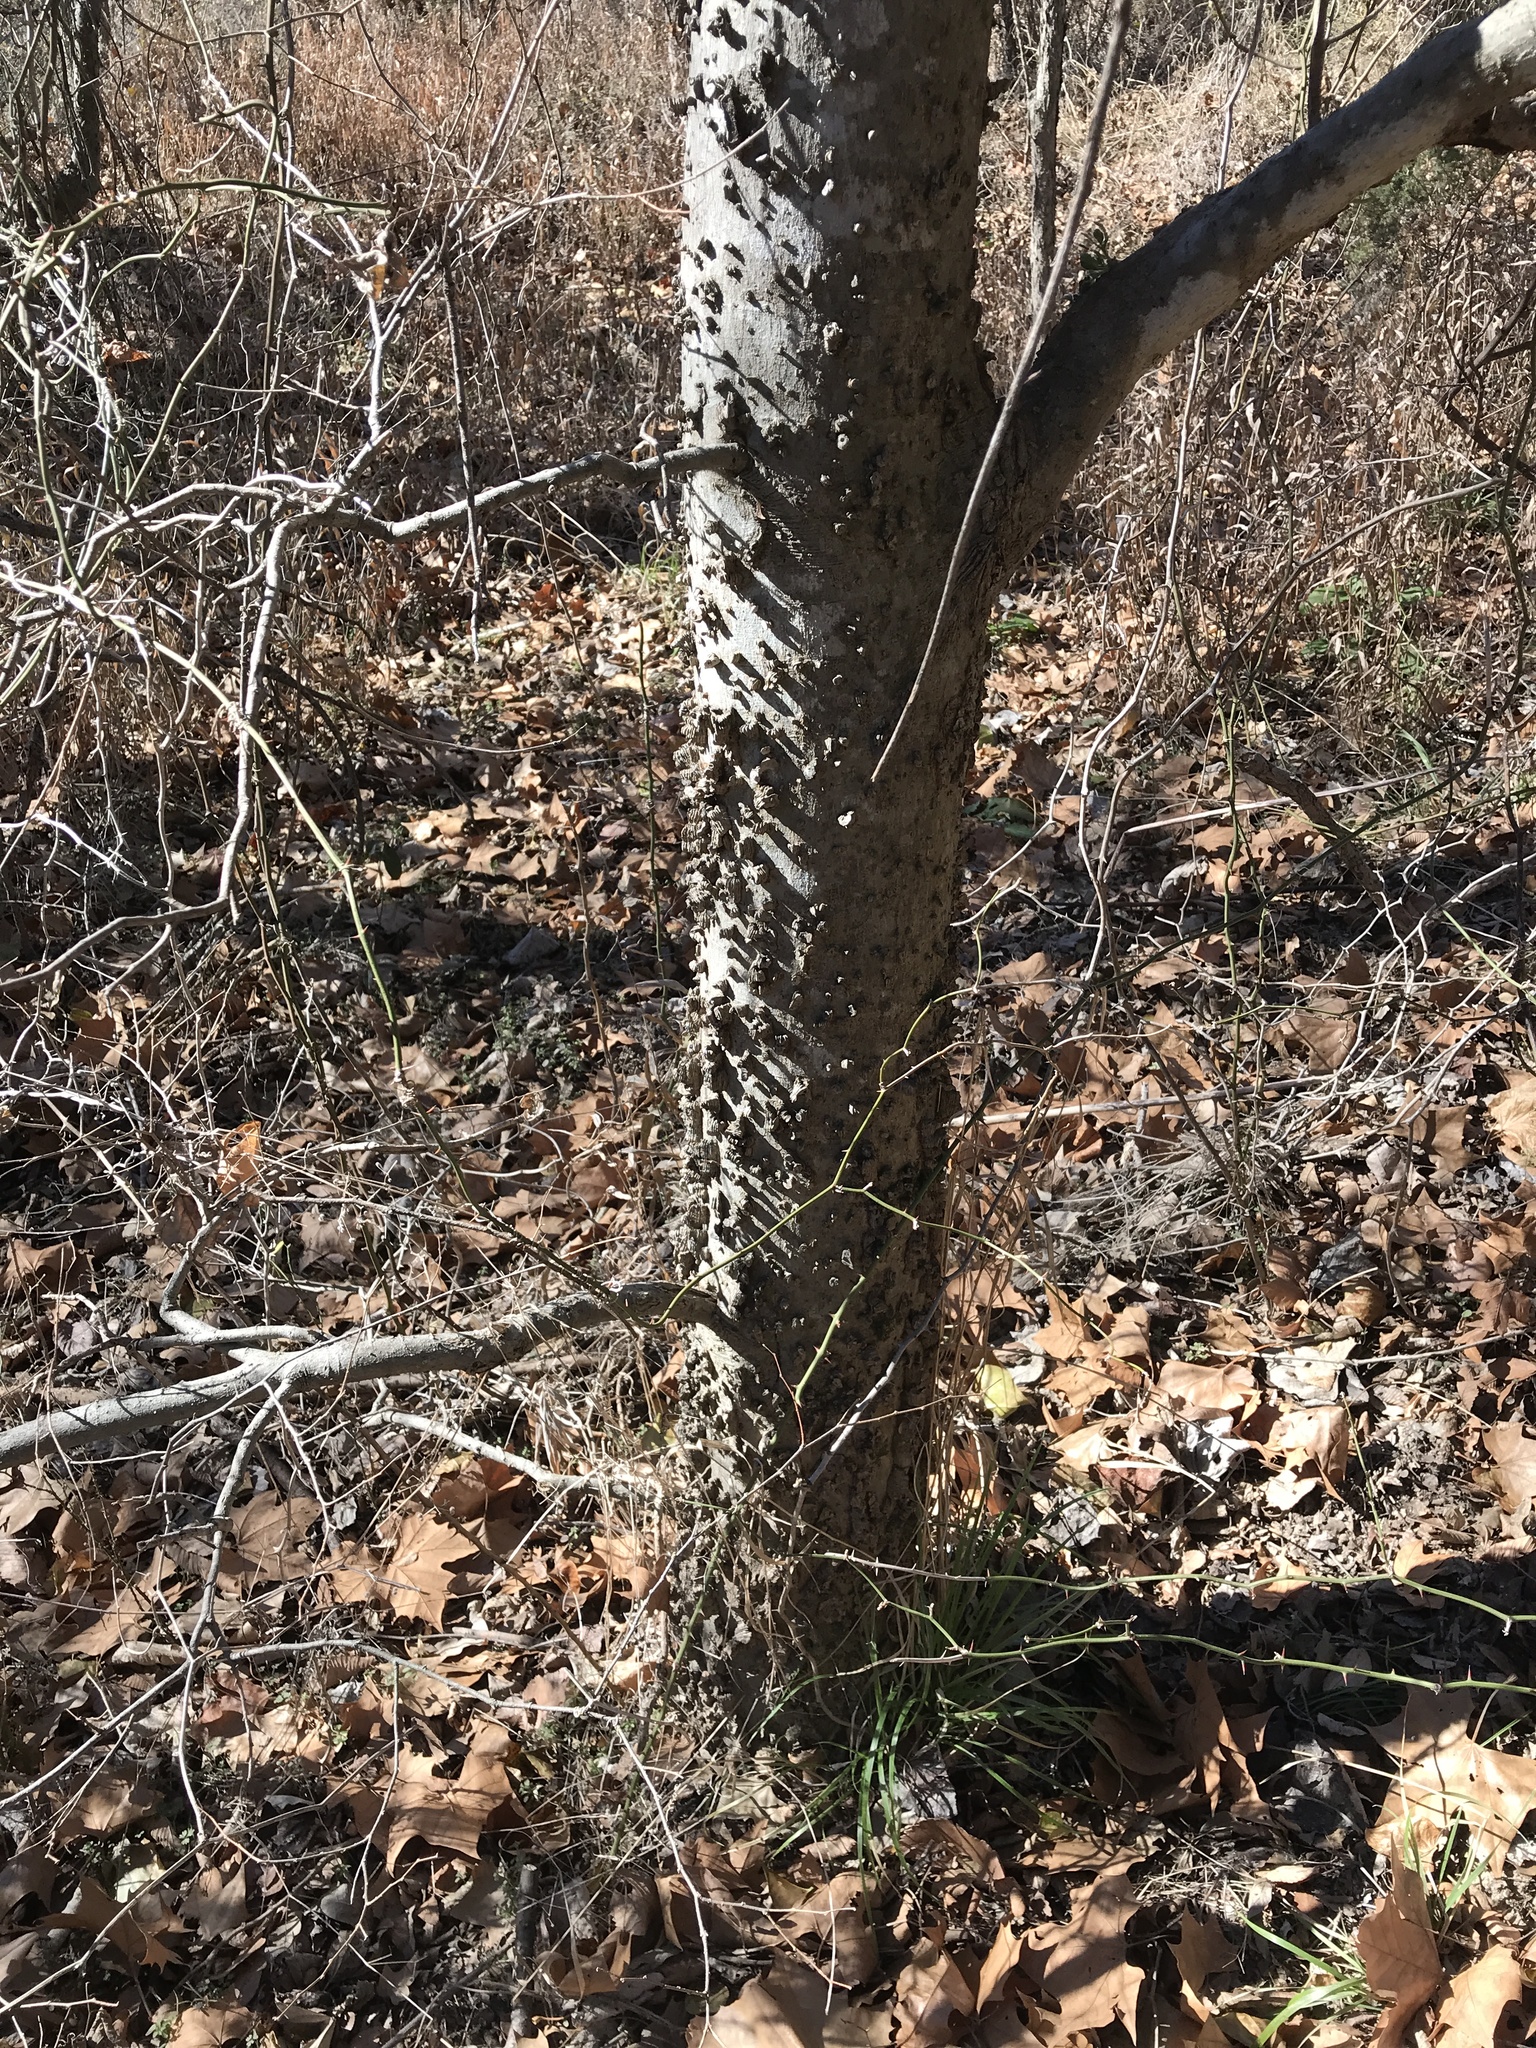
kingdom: Plantae
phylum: Tracheophyta
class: Magnoliopsida
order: Rosales
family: Cannabaceae
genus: Celtis
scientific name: Celtis laevigata
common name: Sugarberry
